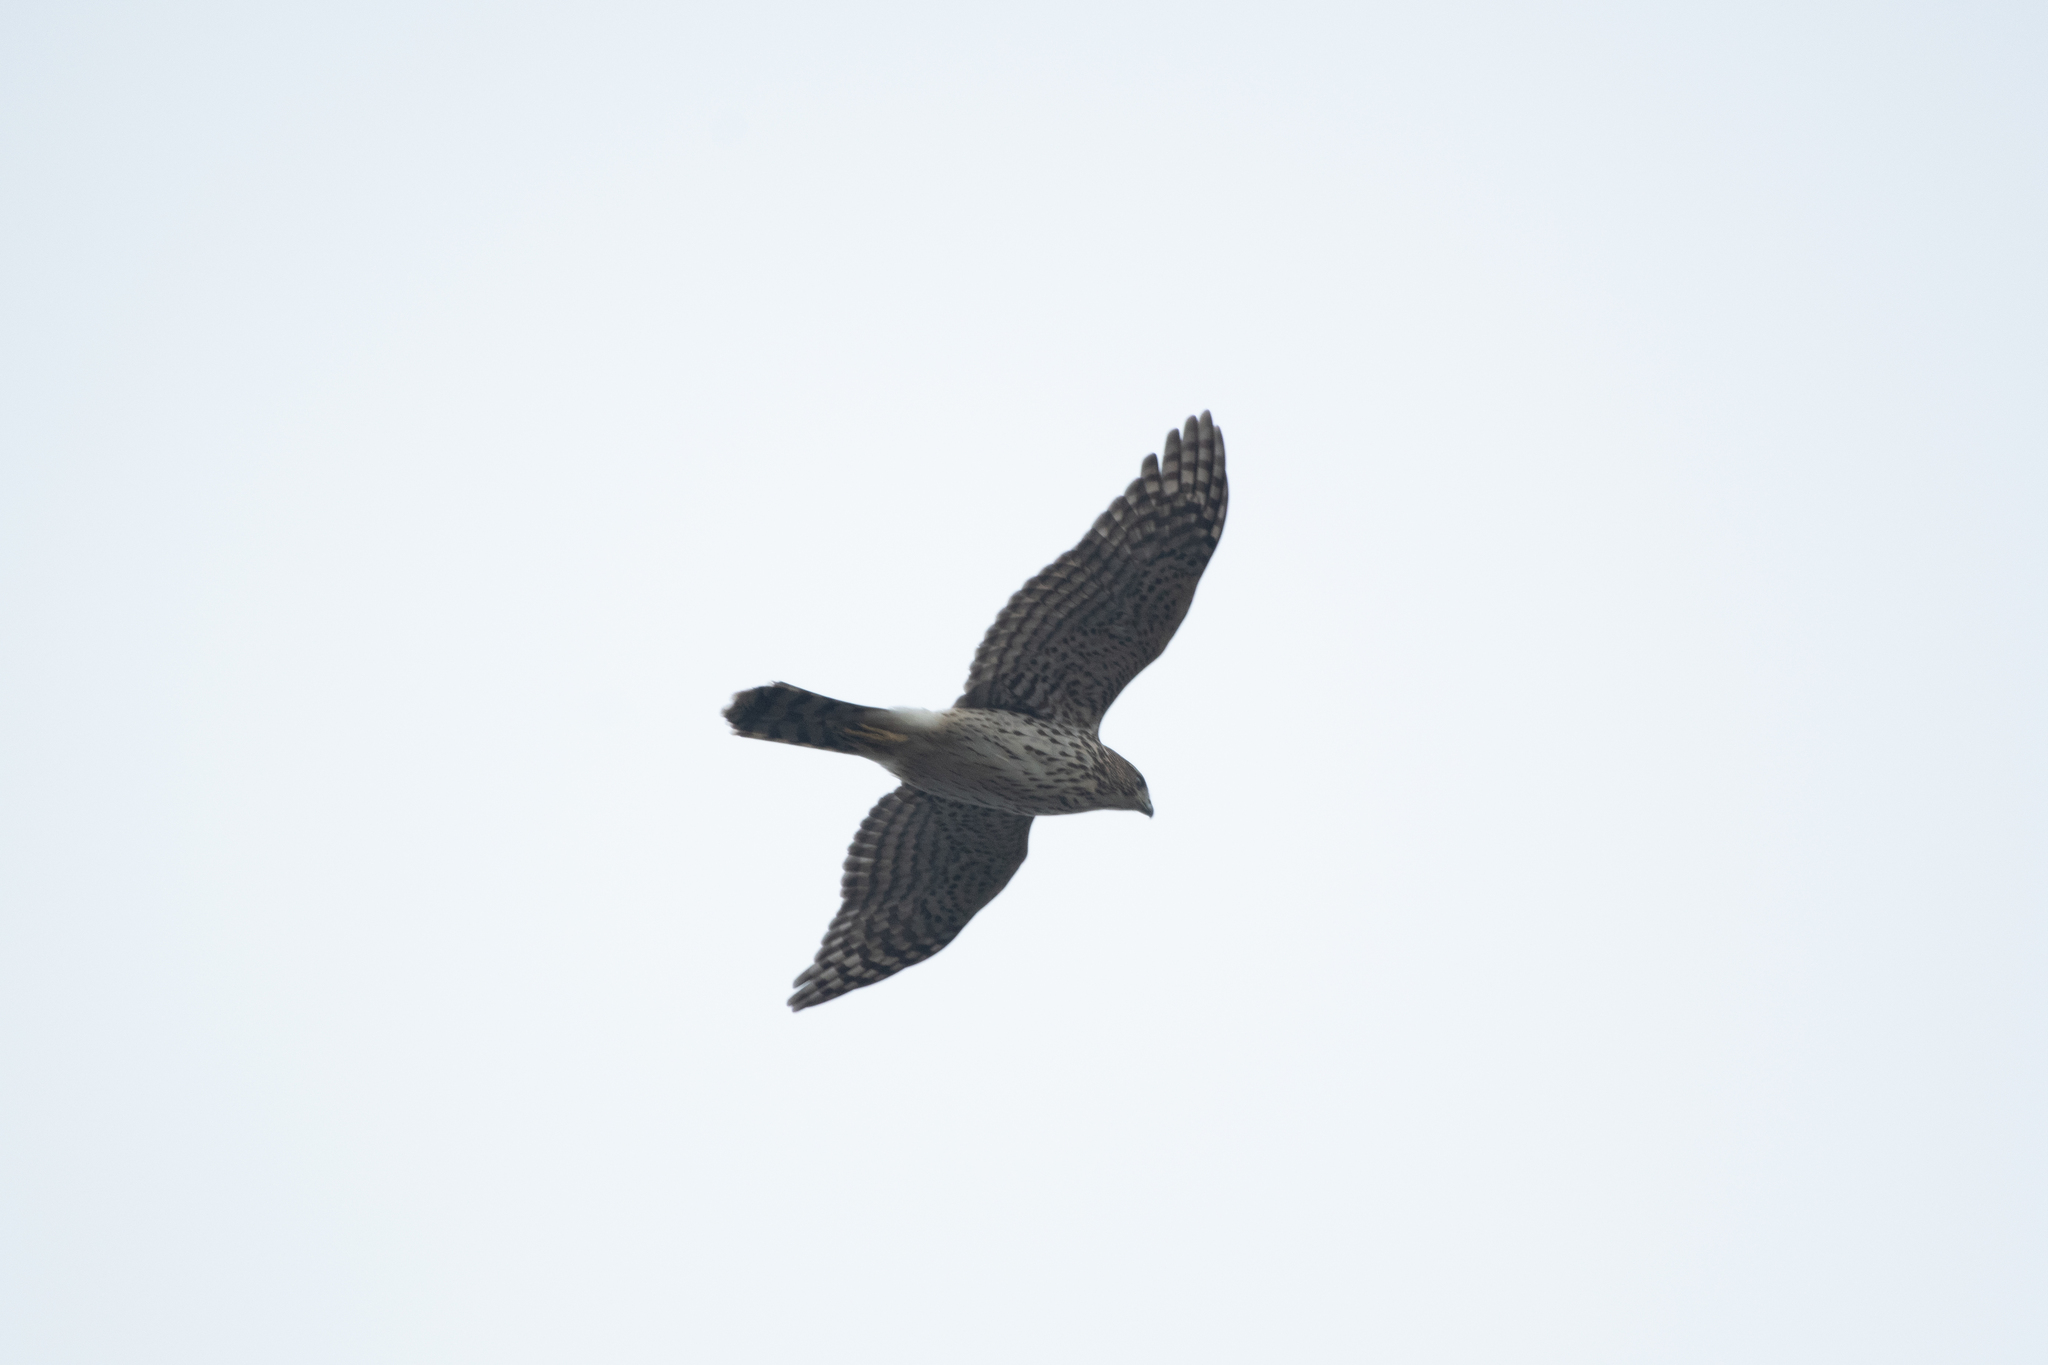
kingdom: Animalia
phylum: Chordata
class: Aves
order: Accipitriformes
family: Accipitridae
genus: Accipiter
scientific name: Accipiter cooperii
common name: Cooper's hawk
